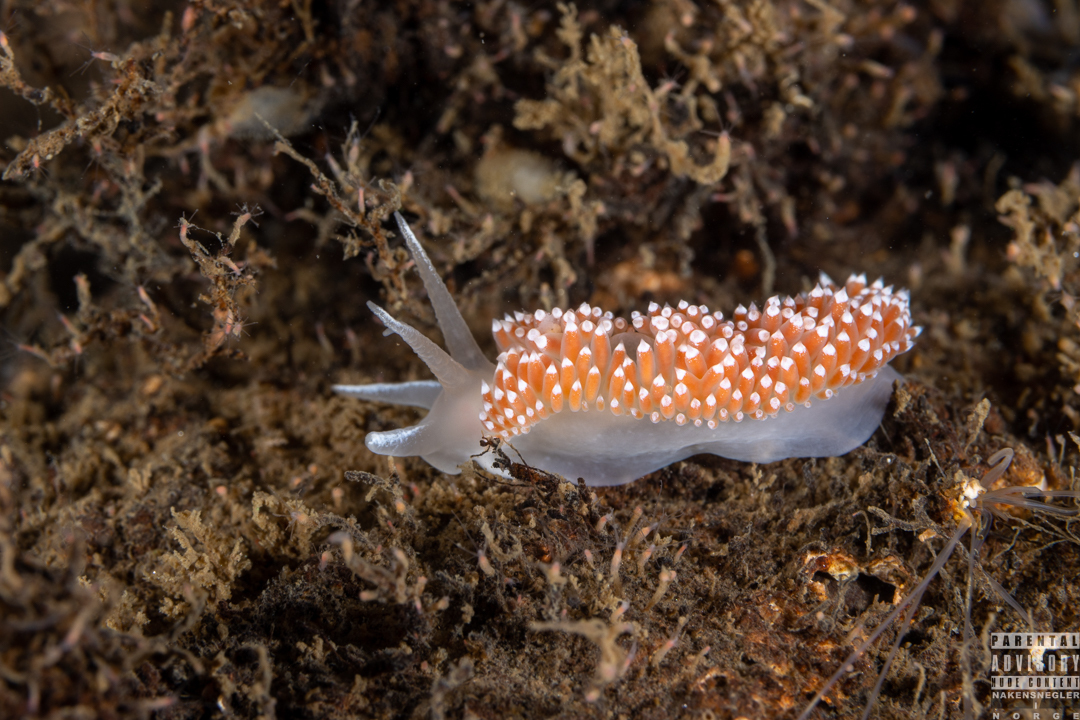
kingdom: Animalia
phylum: Mollusca
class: Gastropoda
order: Nudibranchia
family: Coryphellidae
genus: Coryphella
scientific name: Coryphella verrucosa
